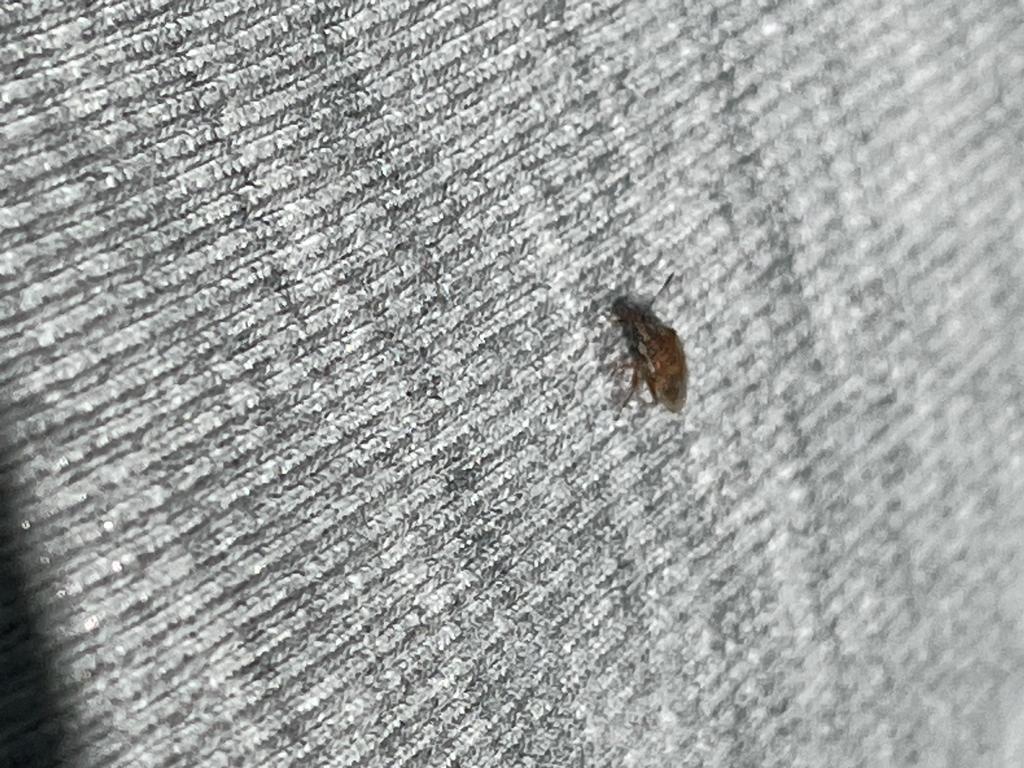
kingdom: Animalia
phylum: Arthropoda
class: Insecta
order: Hemiptera
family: Lygaeidae
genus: Kleidocerys
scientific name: Kleidocerys resedae
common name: Birch catkin bug
